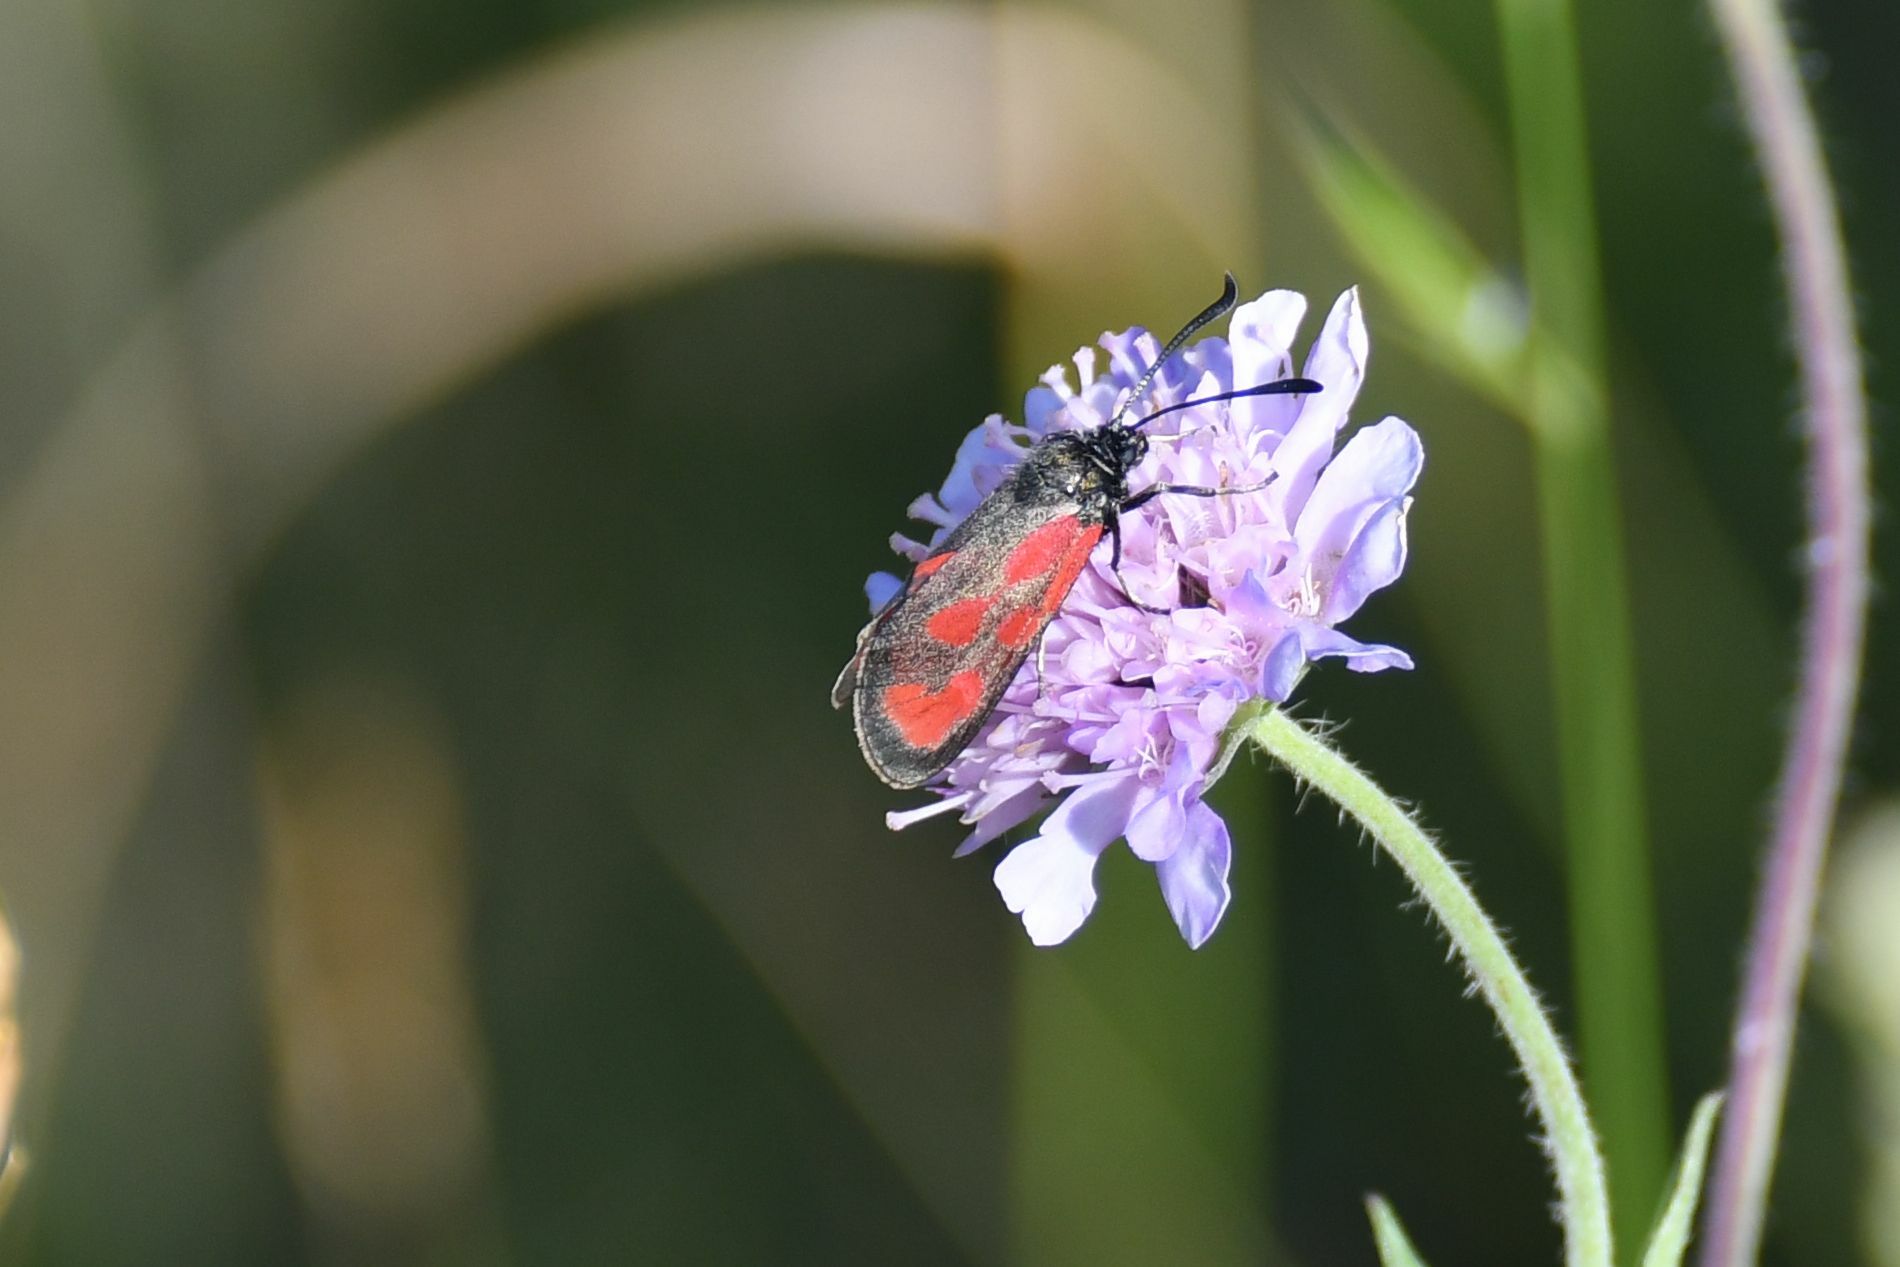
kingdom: Animalia
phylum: Arthropoda
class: Insecta
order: Lepidoptera
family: Zygaenidae
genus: Zygaena
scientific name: Zygaena loti
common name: Slender scotch burnet
